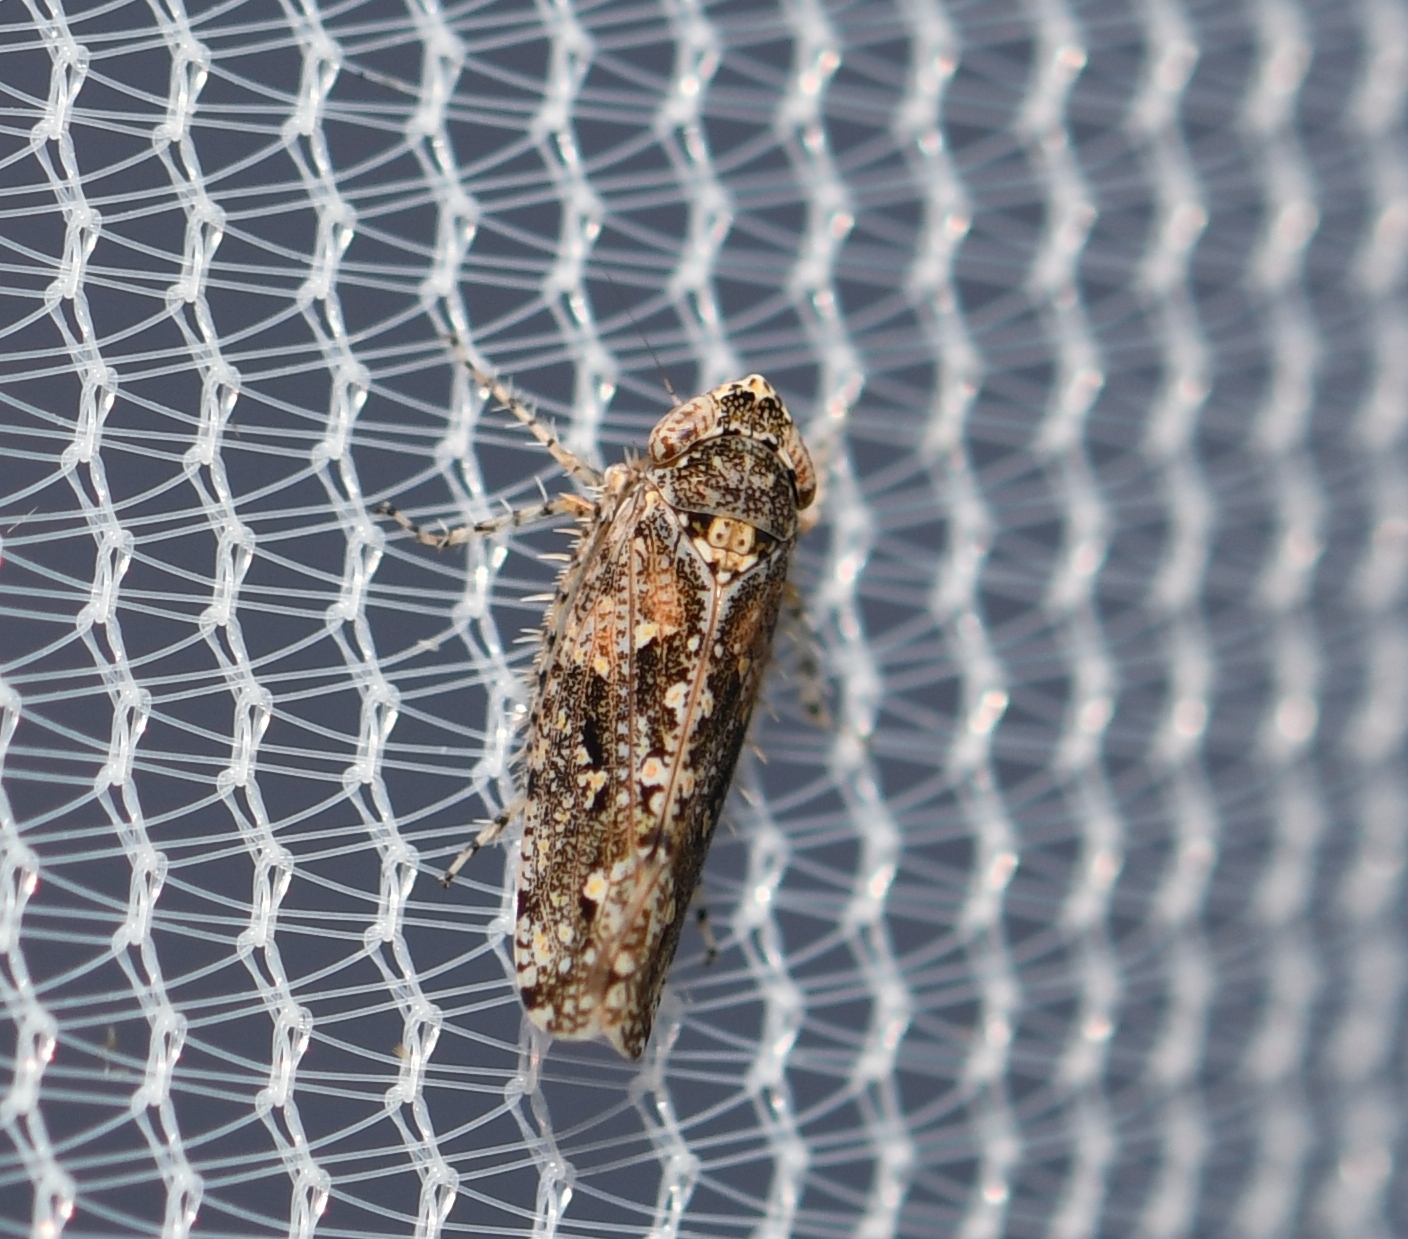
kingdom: Animalia
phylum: Arthropoda
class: Insecta
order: Hemiptera
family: Cicadellidae
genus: Dixianus
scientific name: Dixianus utahnus
